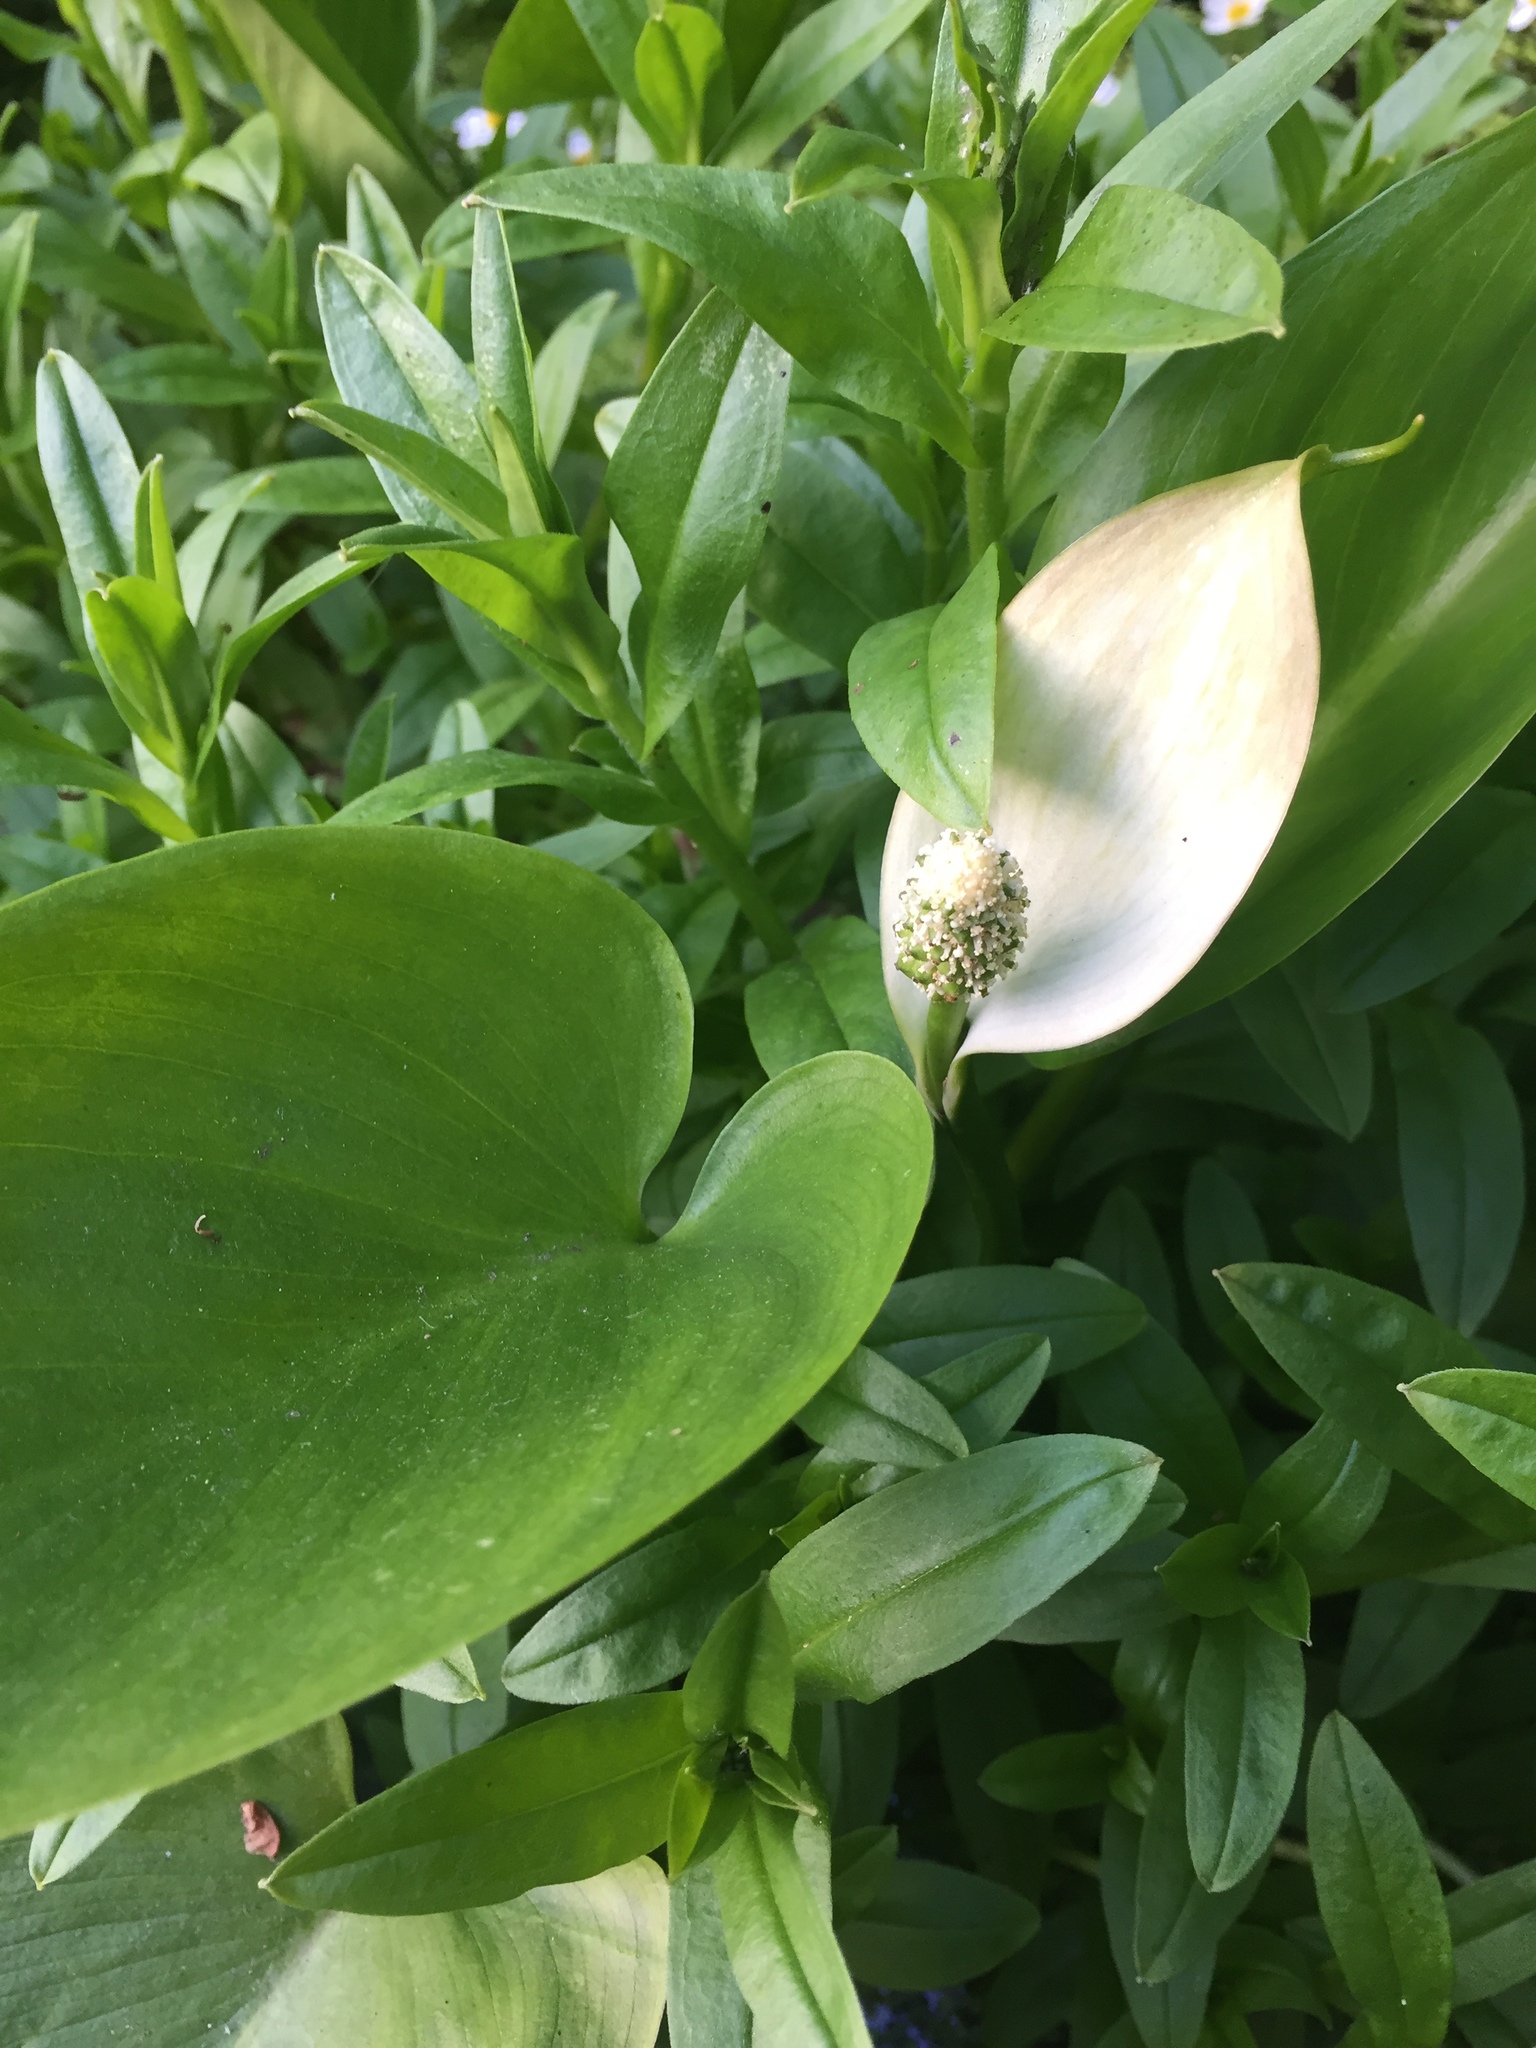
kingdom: Plantae
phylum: Tracheophyta
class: Liliopsida
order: Alismatales
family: Araceae
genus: Calla
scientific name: Calla palustris
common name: Bog arum
